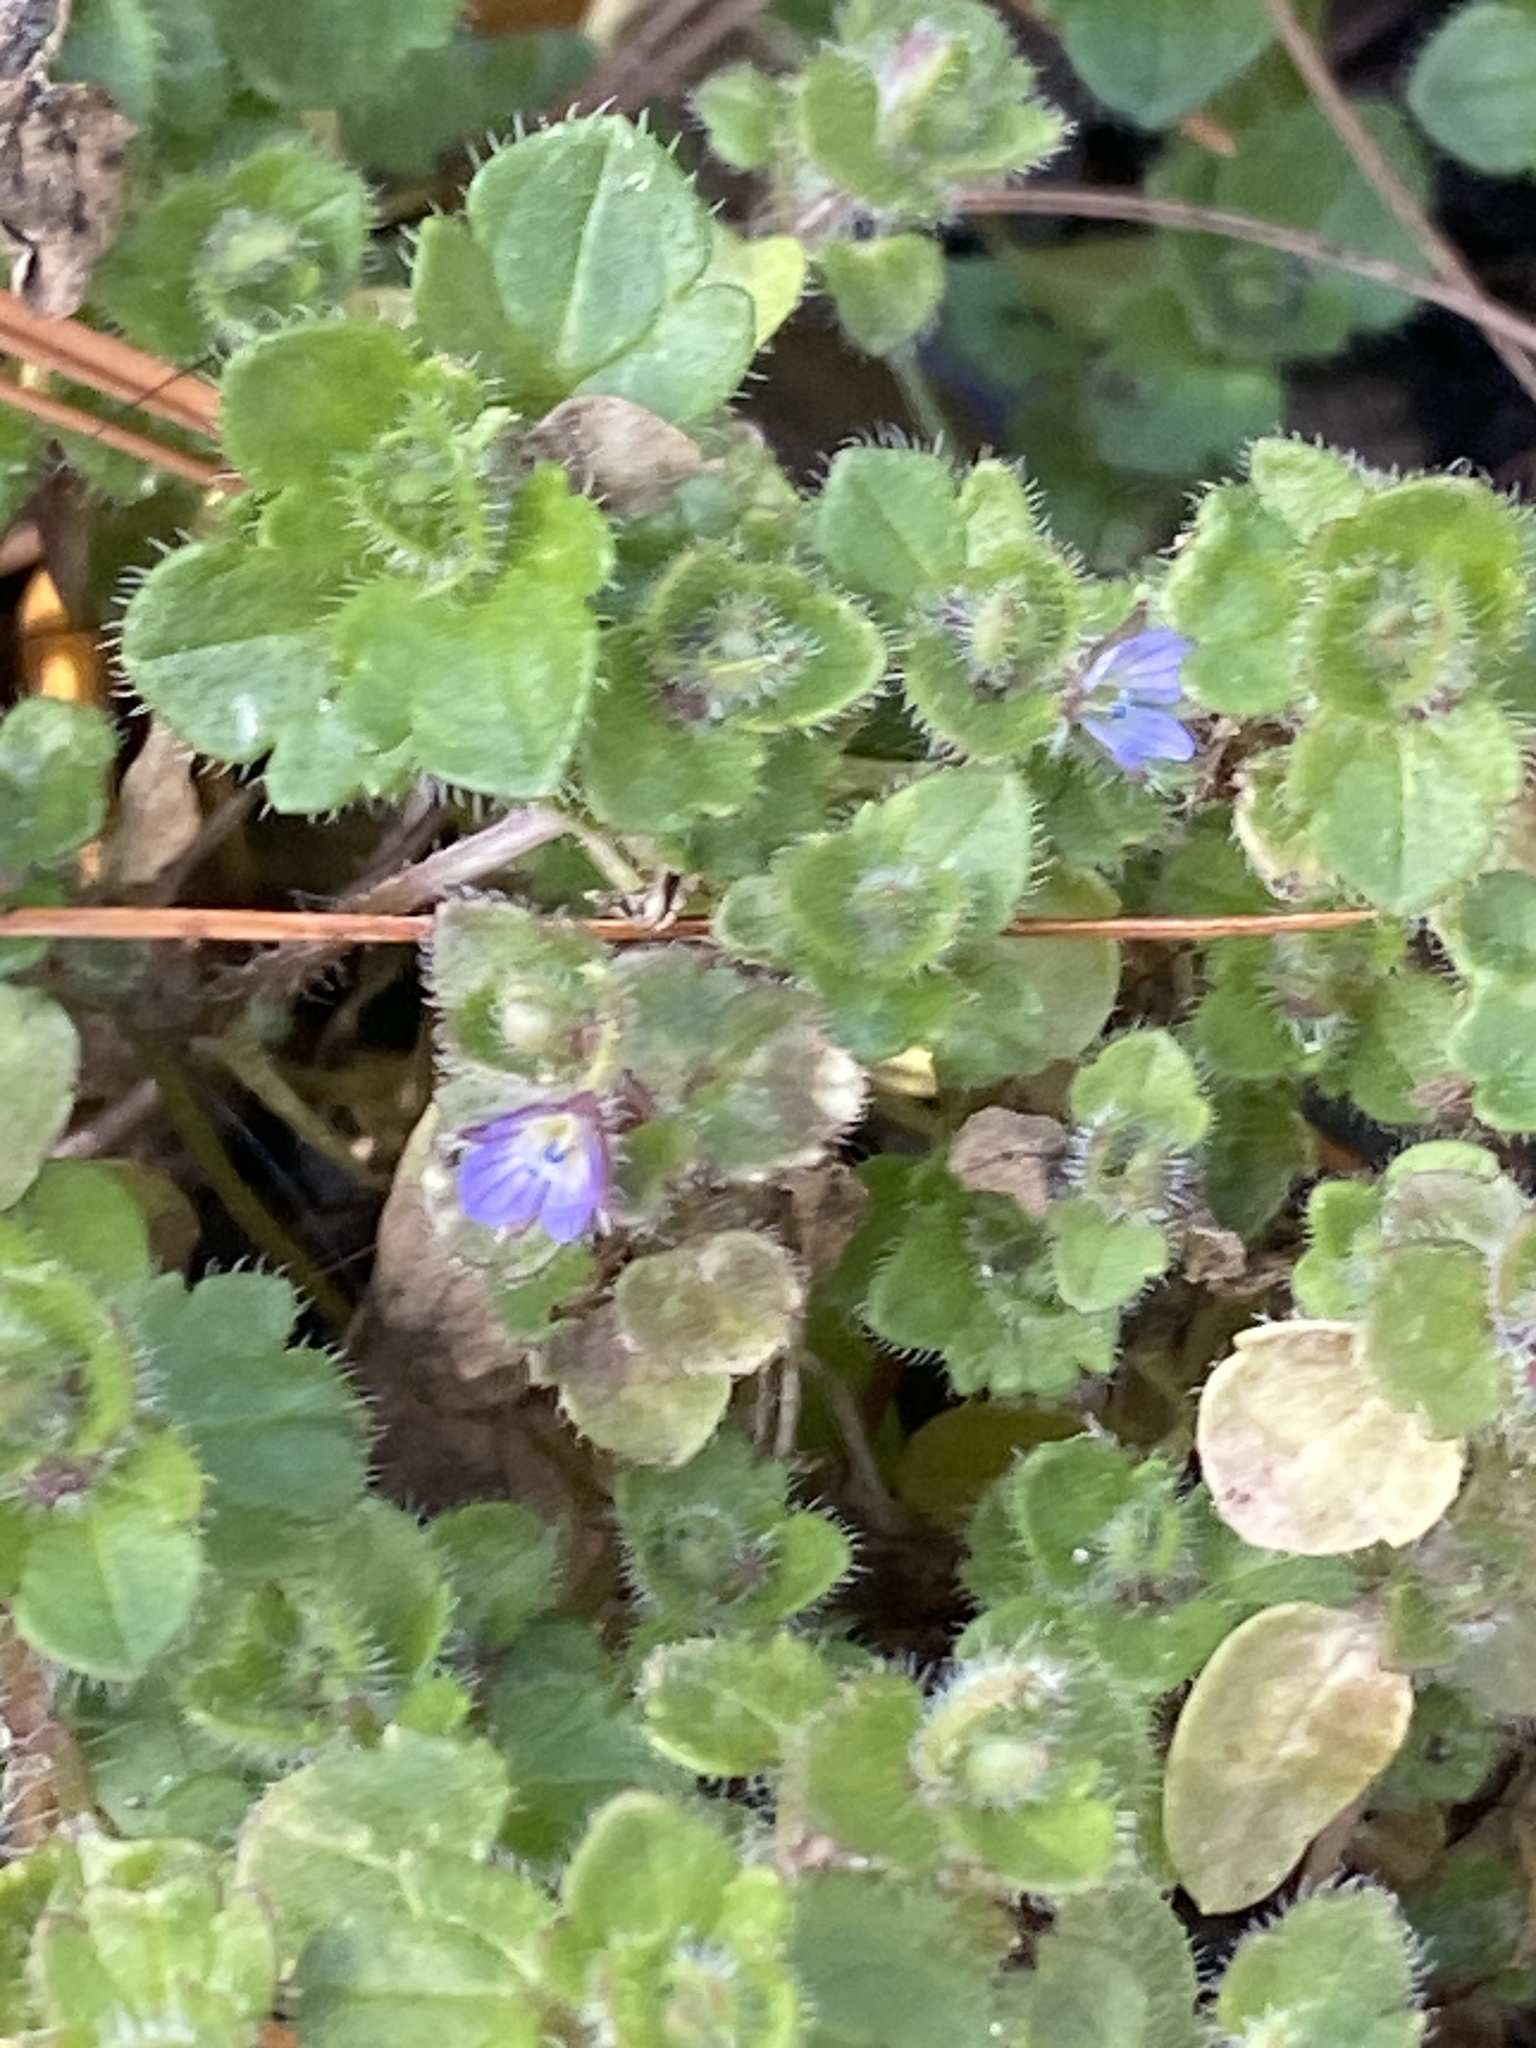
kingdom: Plantae
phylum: Tracheophyta
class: Magnoliopsida
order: Lamiales
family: Plantaginaceae
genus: Veronica
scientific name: Veronica hederifolia
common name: Ivy-leaved speedwell
